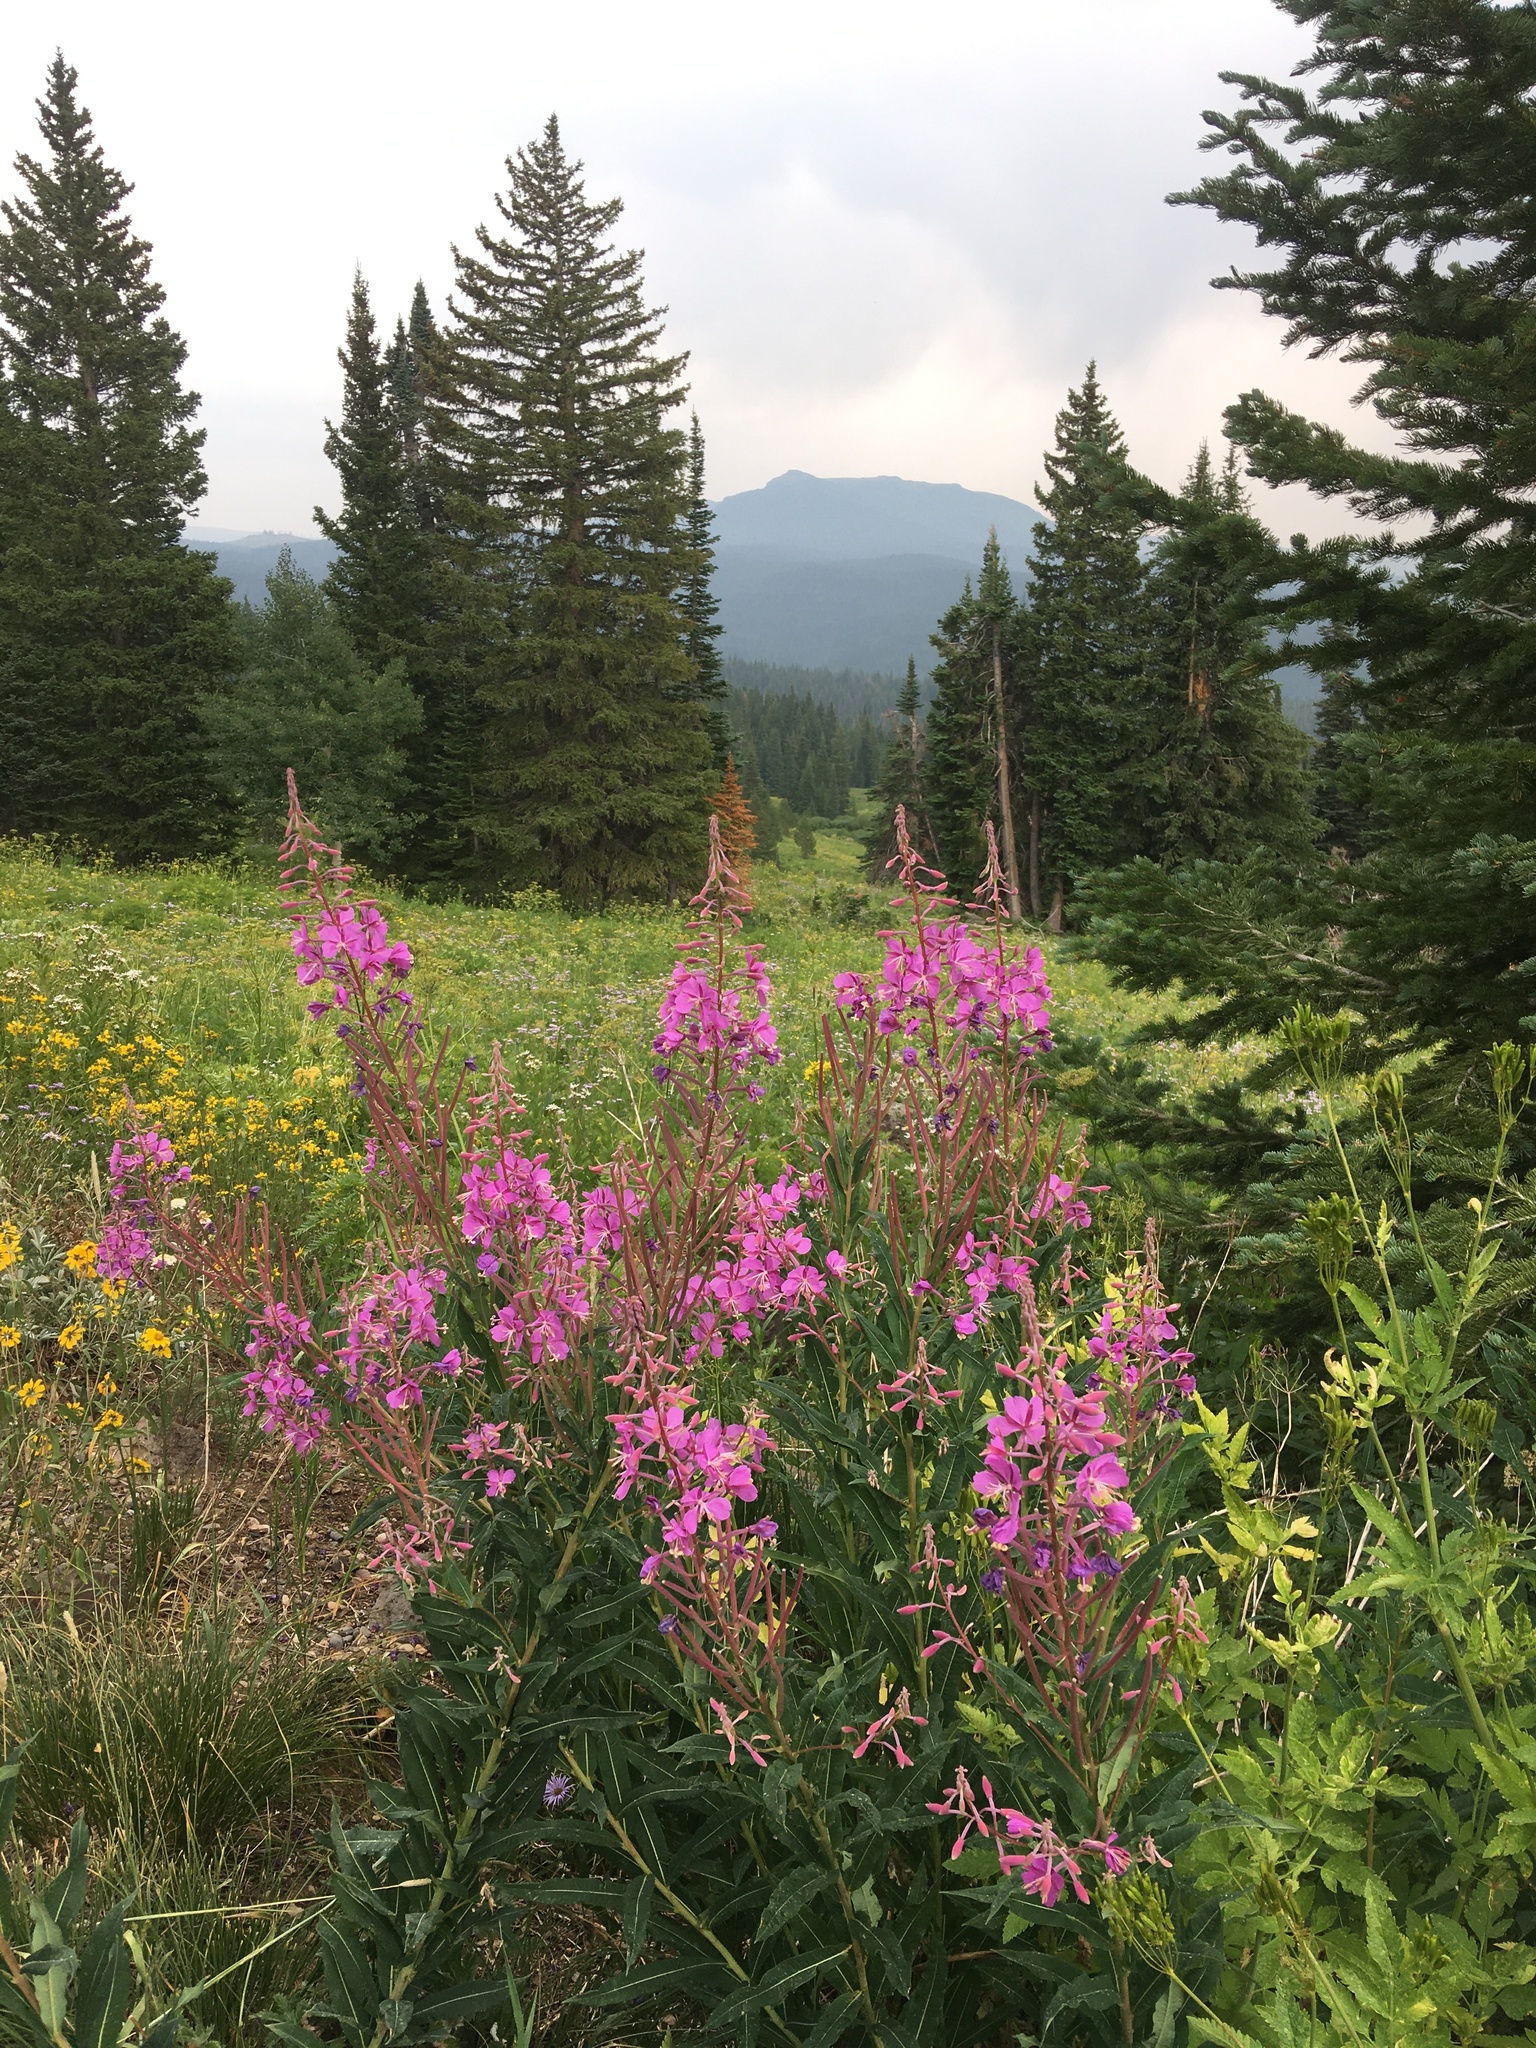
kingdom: Plantae
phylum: Tracheophyta
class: Magnoliopsida
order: Myrtales
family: Onagraceae
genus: Chamaenerion
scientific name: Chamaenerion angustifolium
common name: Fireweed
